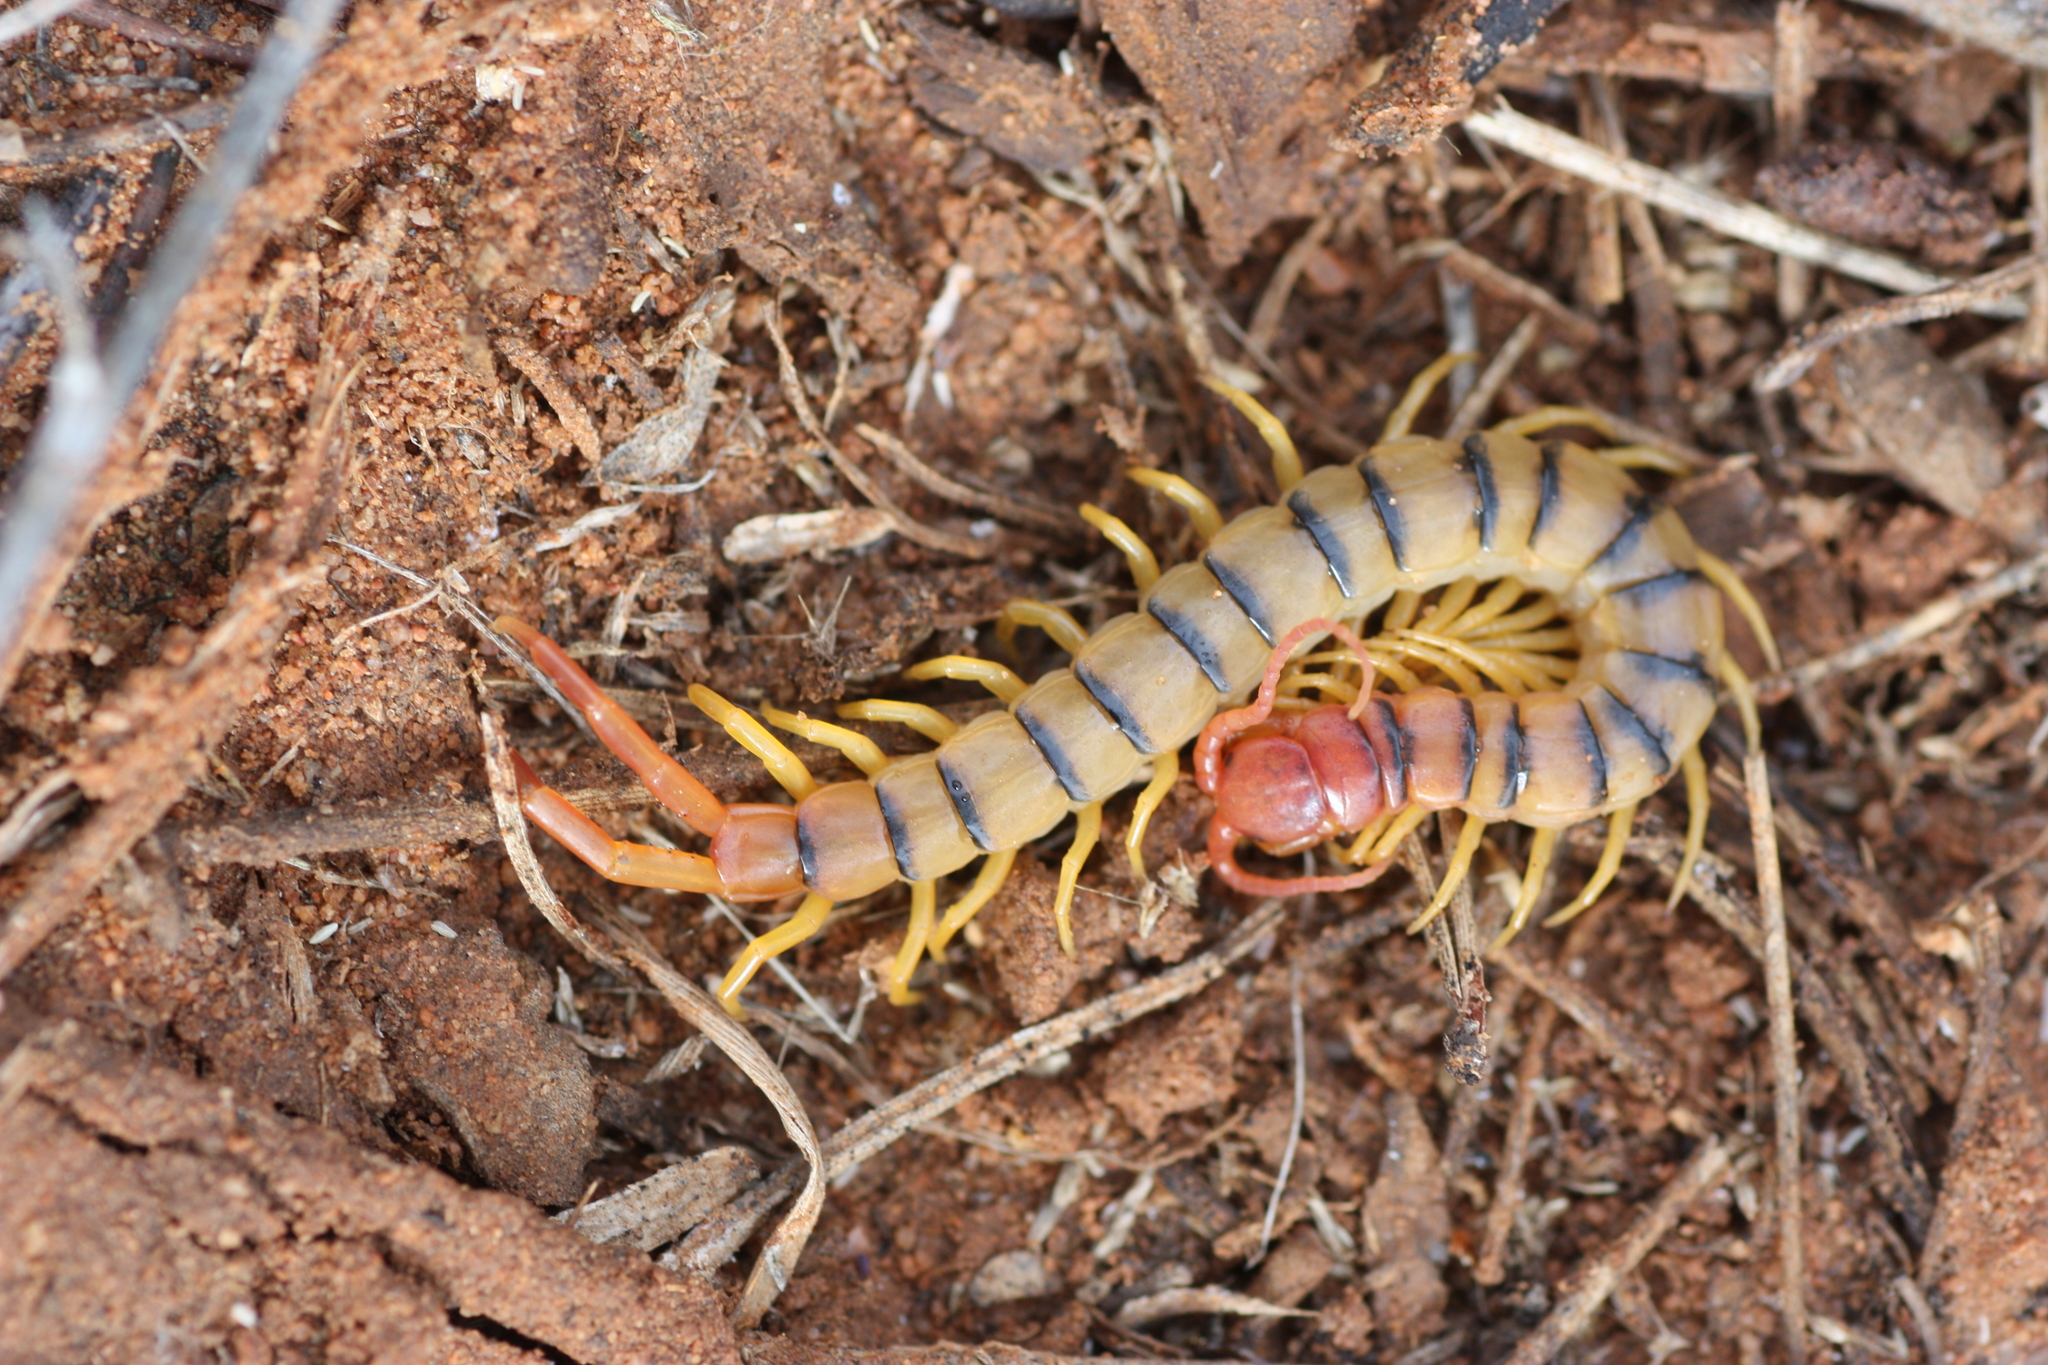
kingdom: Animalia
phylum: Arthropoda
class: Chilopoda
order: Scolopendromorpha
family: Scolopendridae
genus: Scolopendra
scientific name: Scolopendra polymorpha
